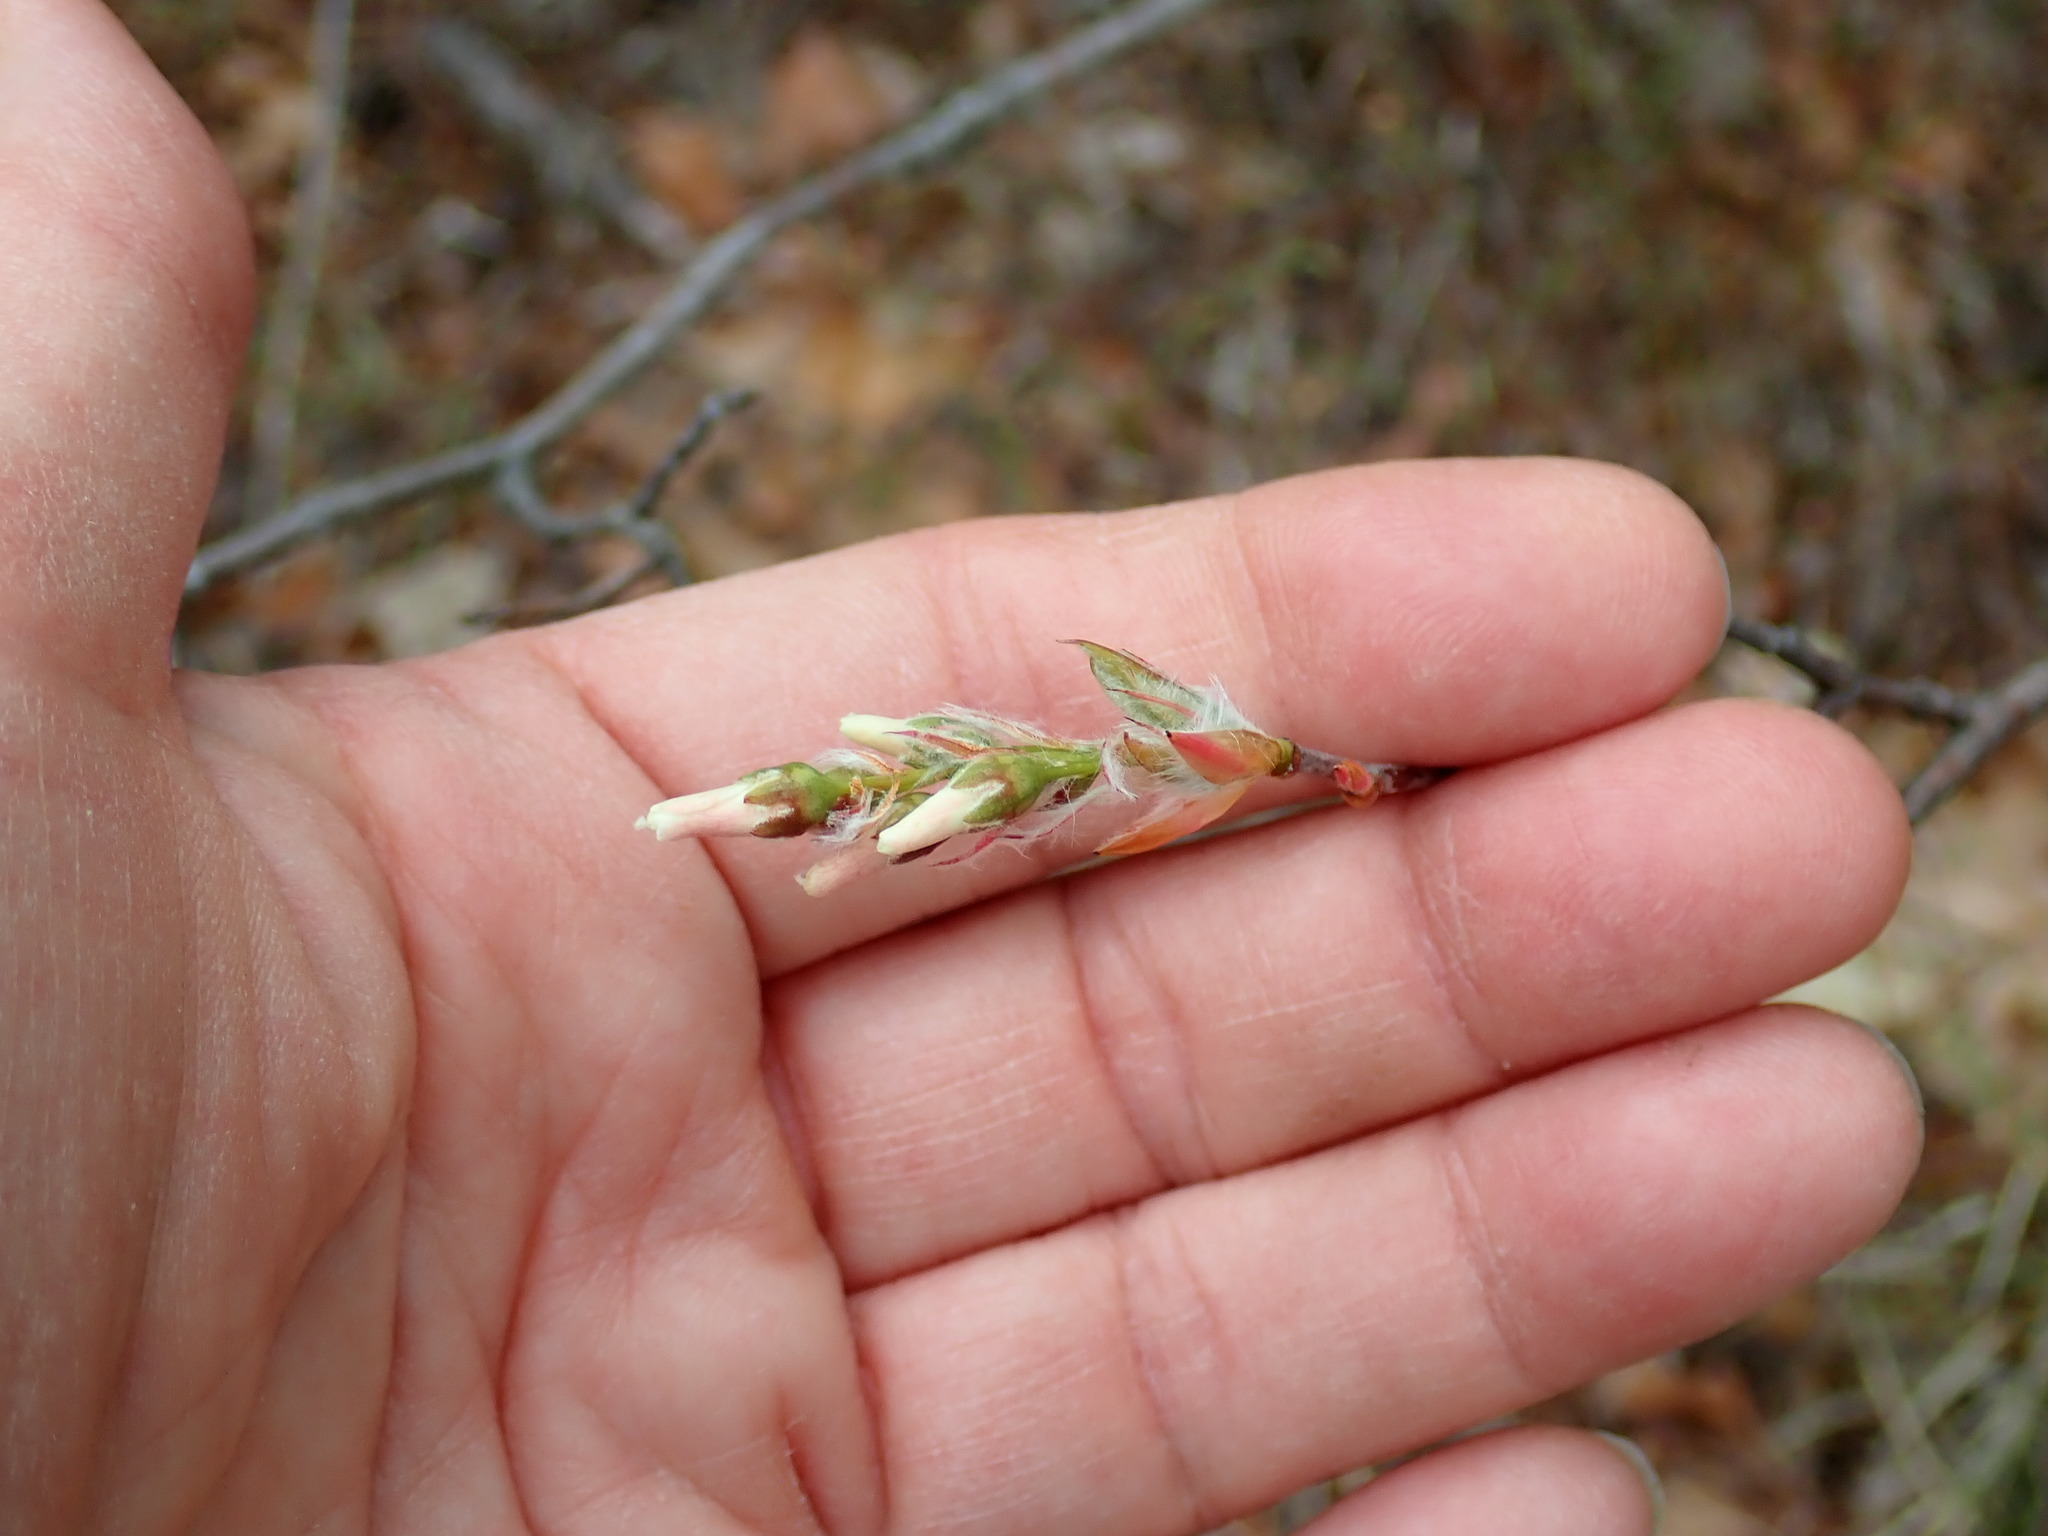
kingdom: Plantae
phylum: Tracheophyta
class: Magnoliopsida
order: Rosales
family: Rosaceae
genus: Amelanchier
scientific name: Amelanchier
